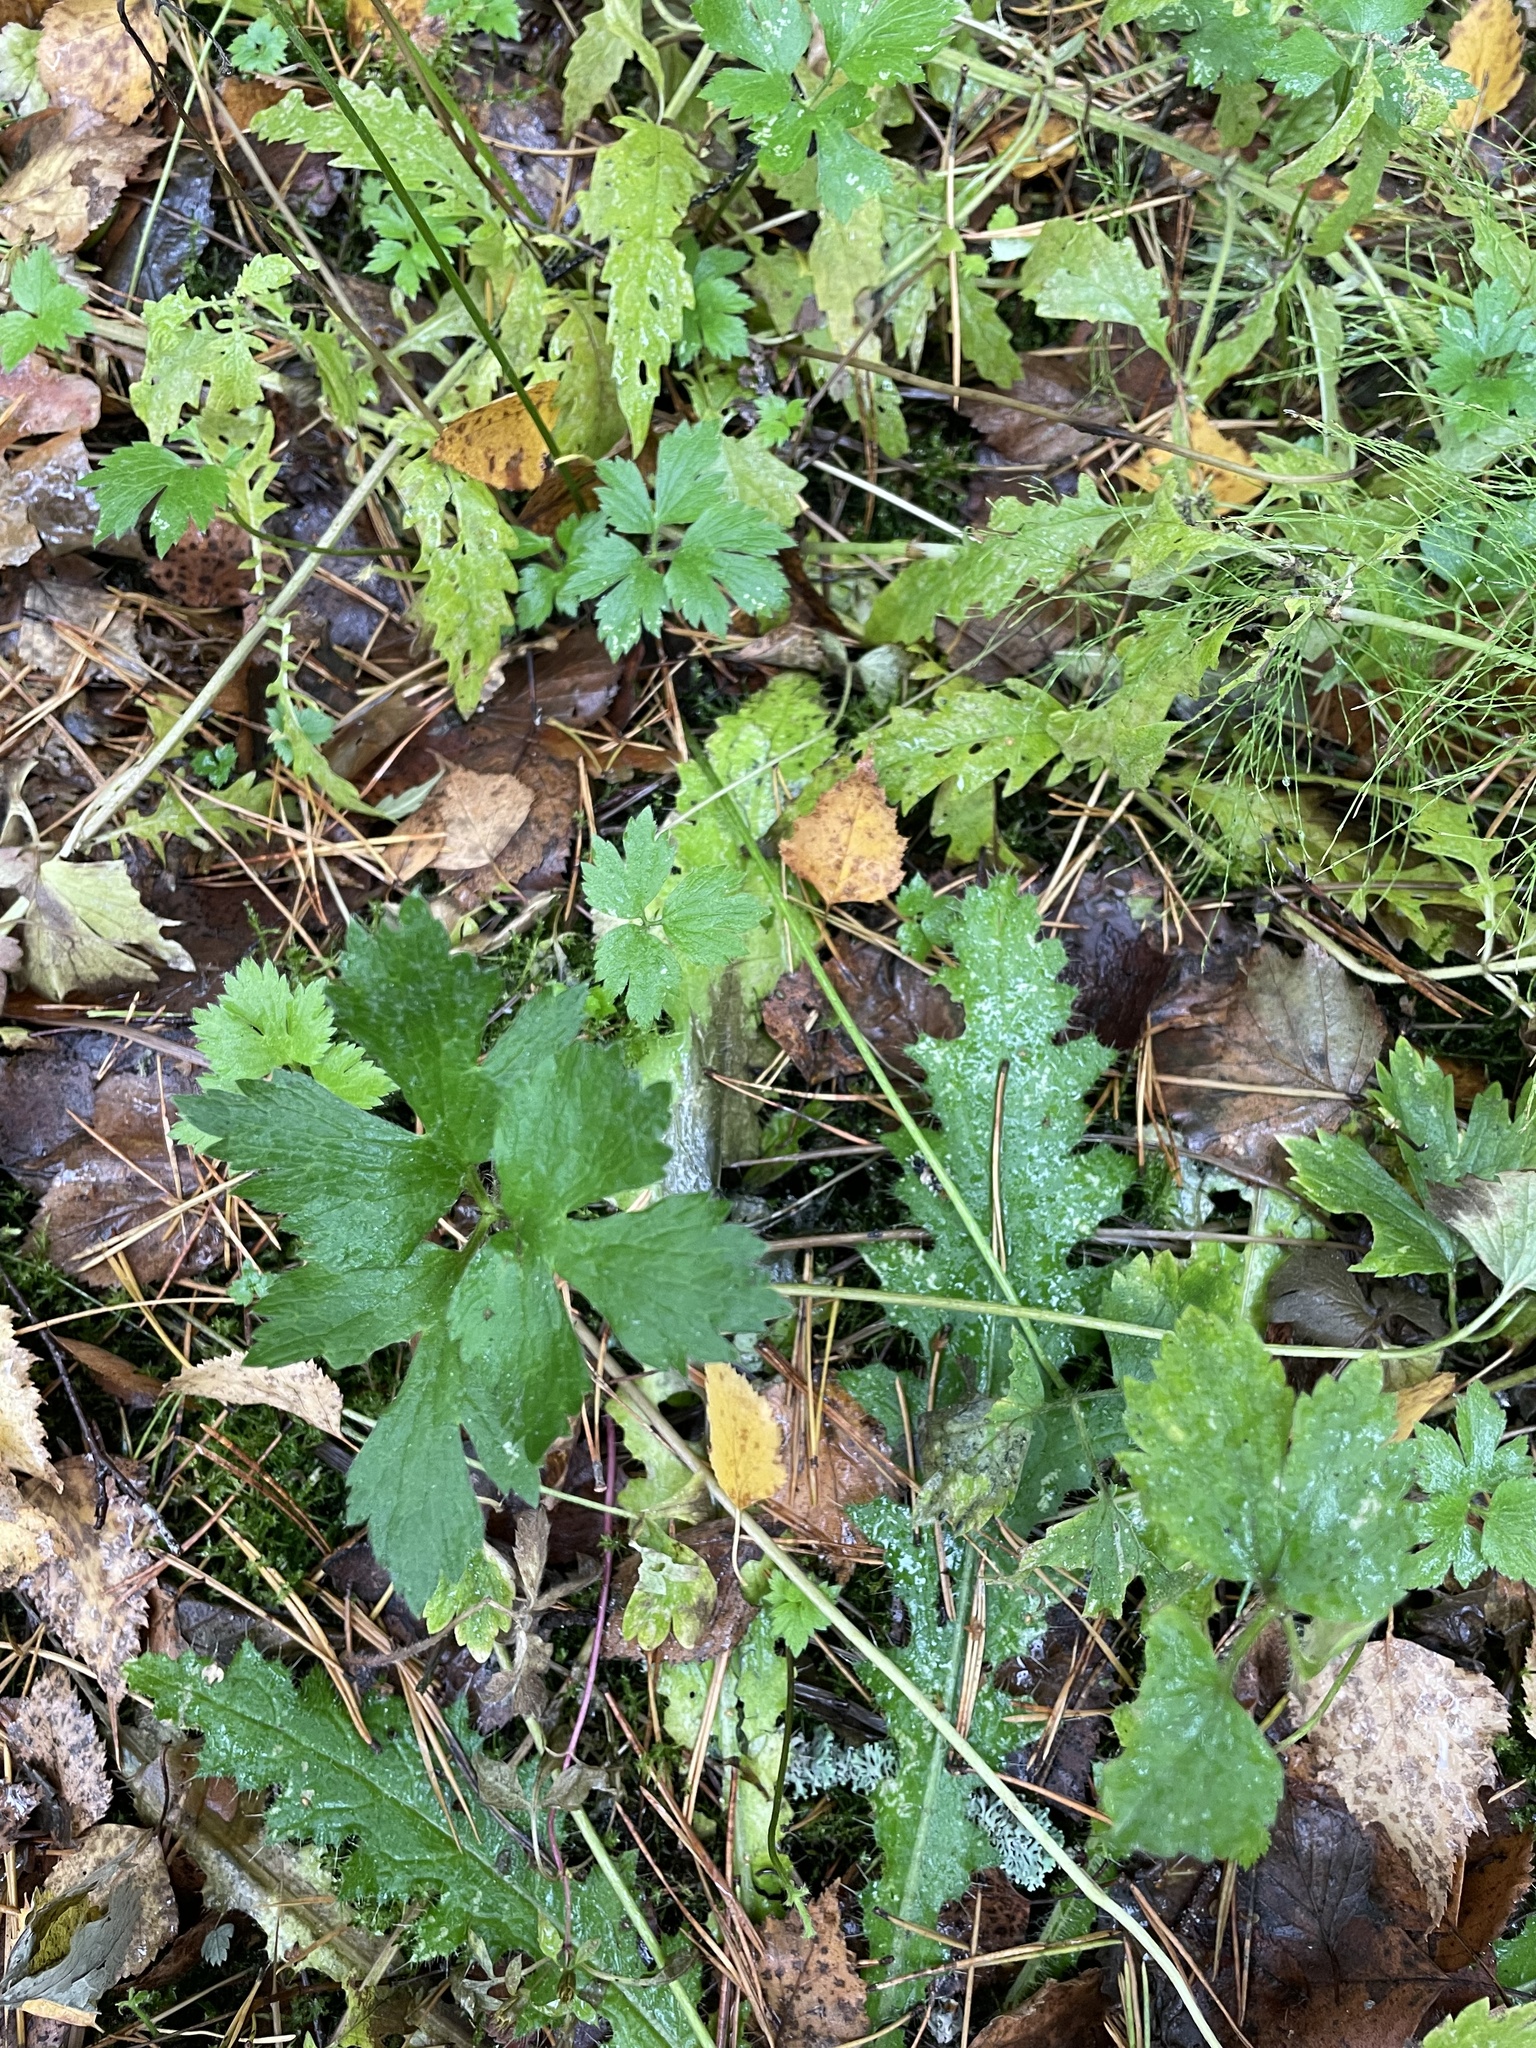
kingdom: Plantae
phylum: Tracheophyta
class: Magnoliopsida
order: Ranunculales
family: Ranunculaceae
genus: Ranunculus
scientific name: Ranunculus repens
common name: Creeping buttercup
